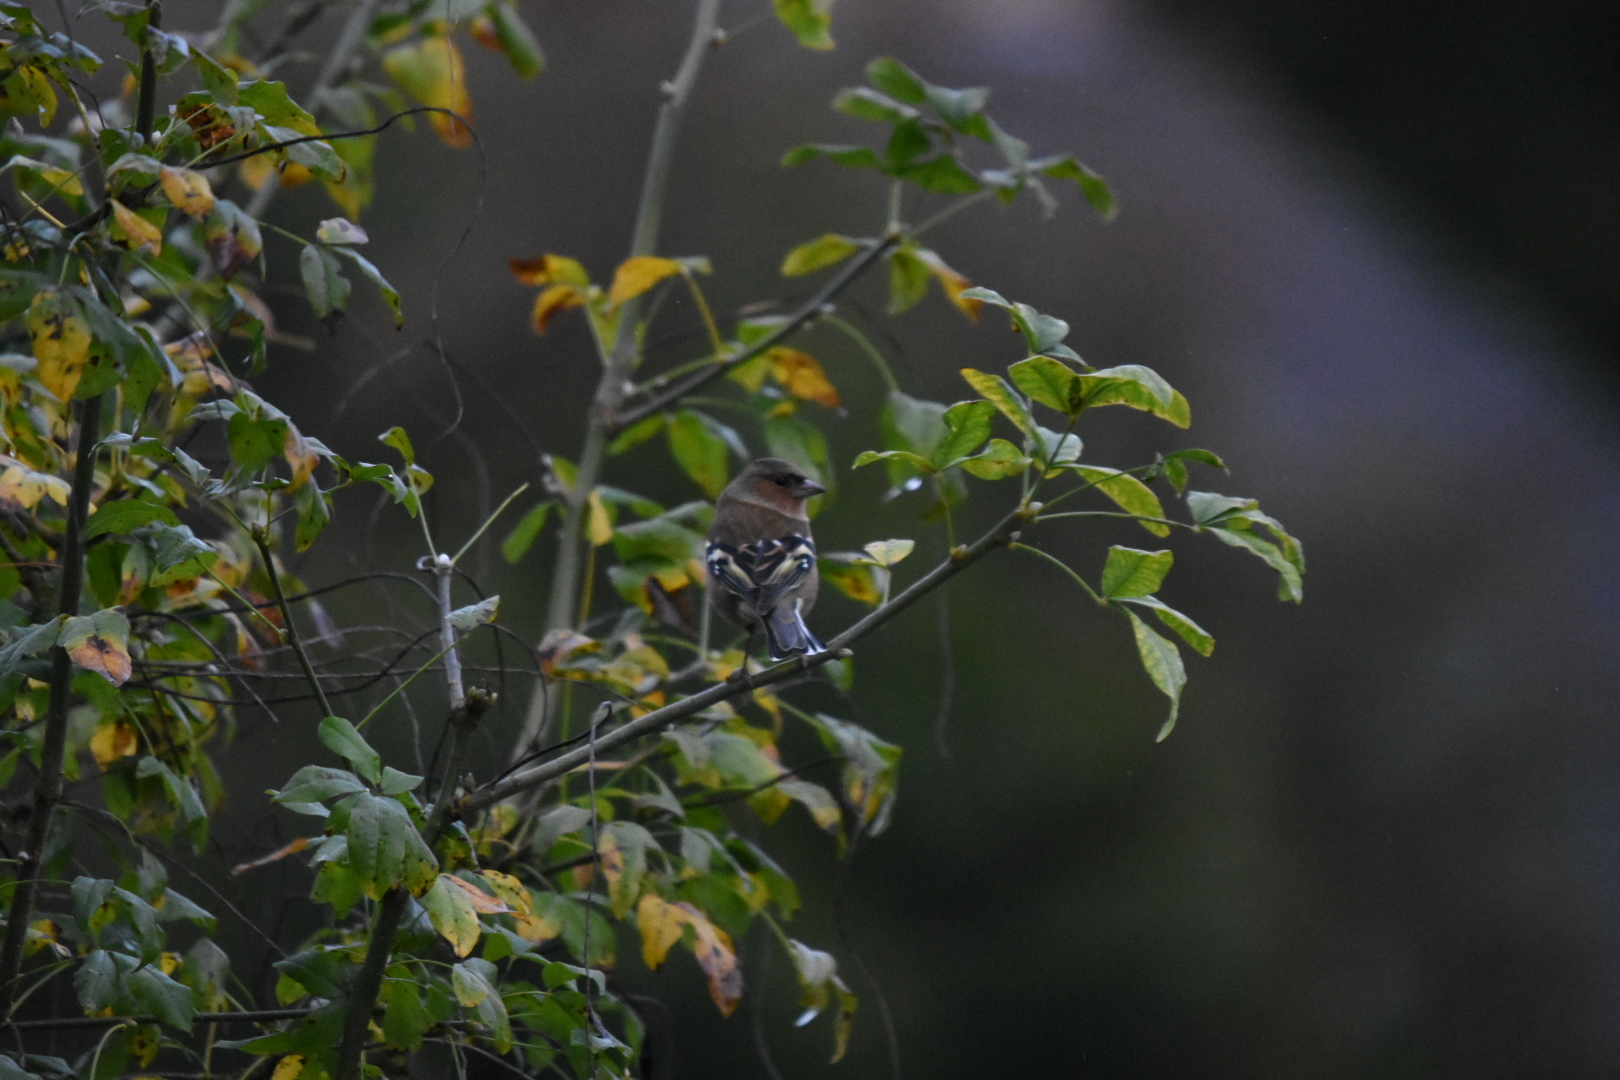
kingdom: Animalia
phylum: Chordata
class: Aves
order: Passeriformes
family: Fringillidae
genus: Fringilla
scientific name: Fringilla coelebs
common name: Common chaffinch
